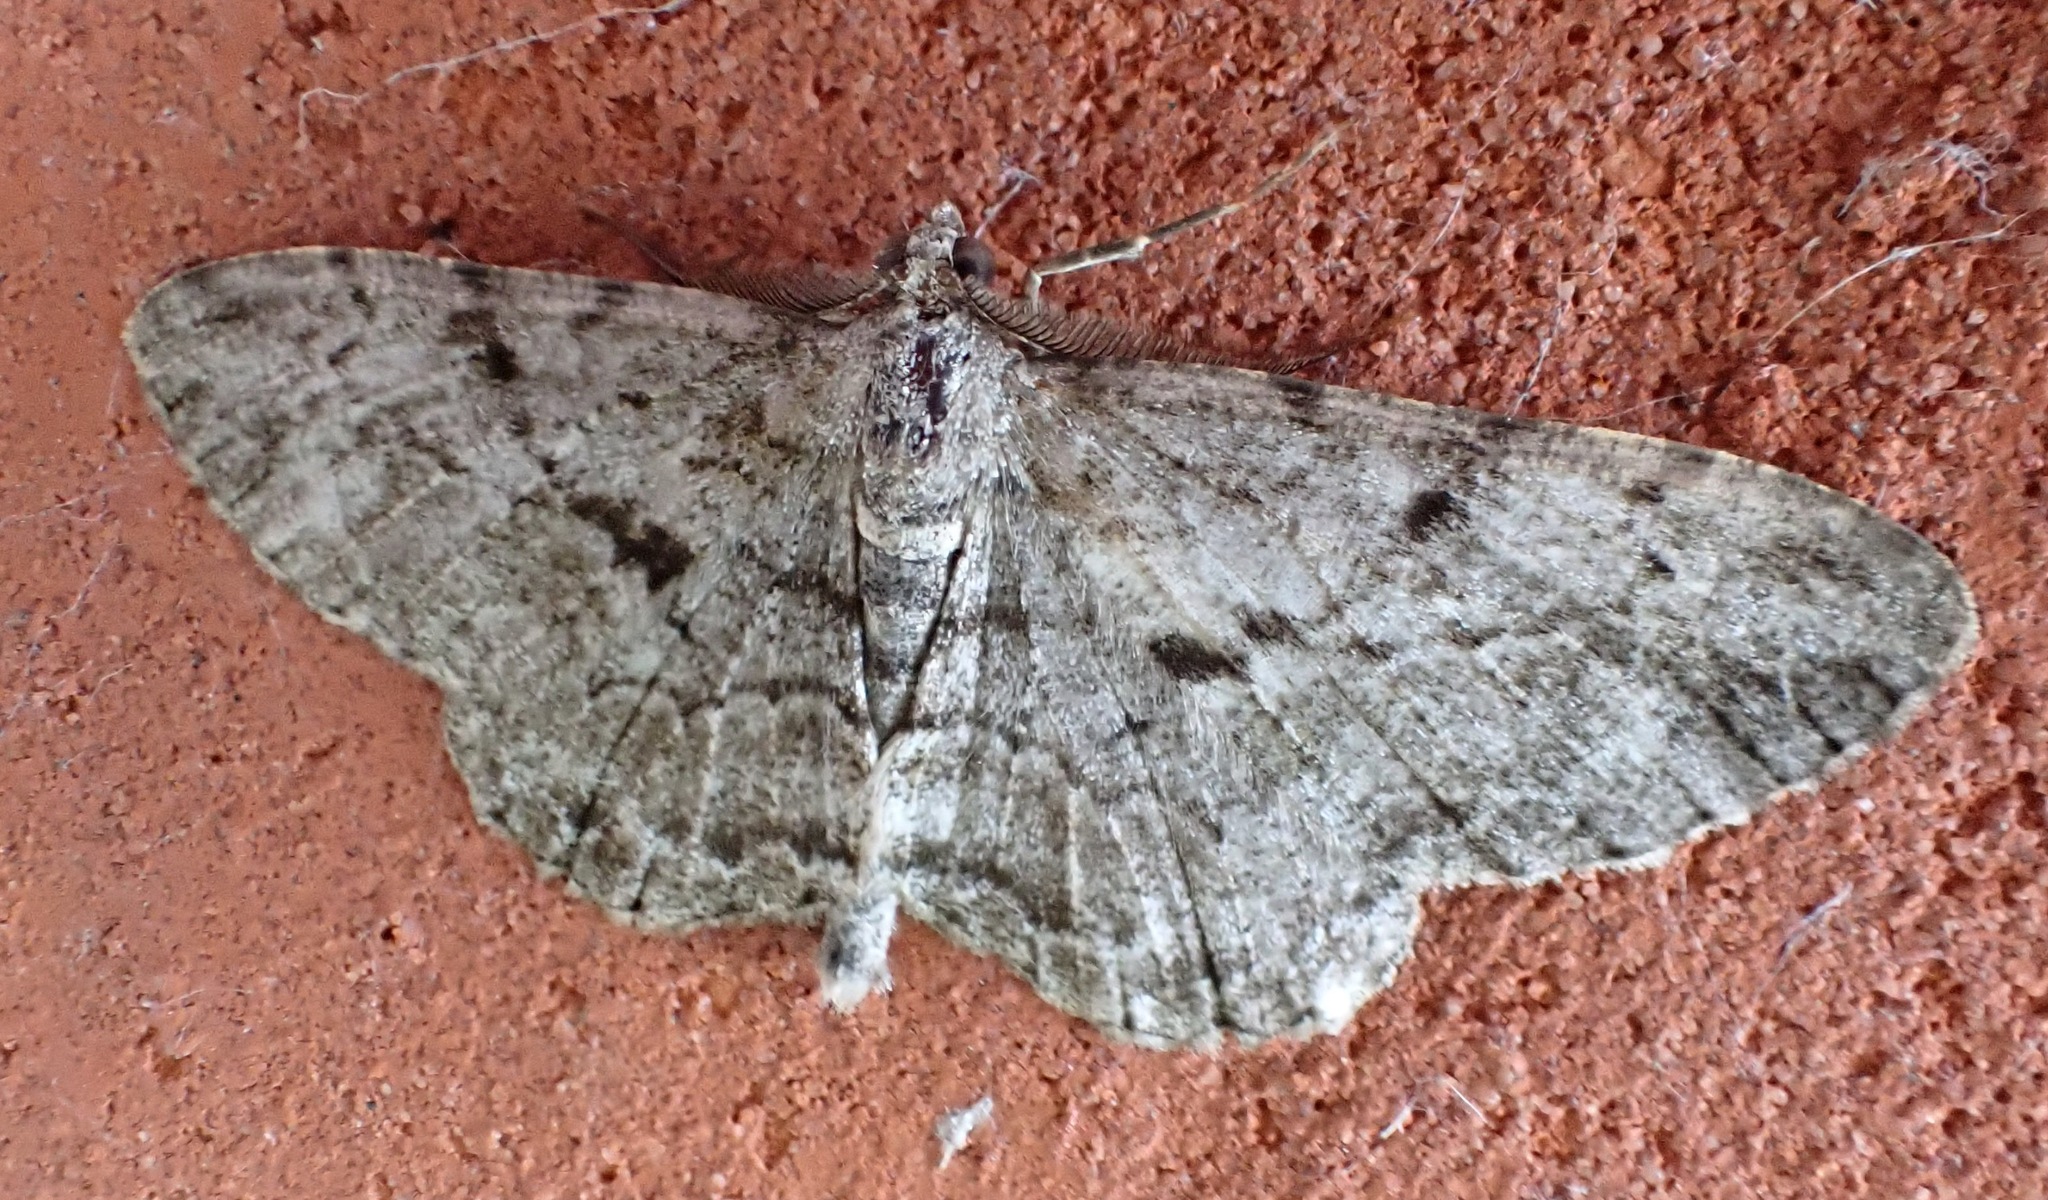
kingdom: Animalia
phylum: Arthropoda
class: Insecta
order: Lepidoptera
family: Geometridae
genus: Peribatodes
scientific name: Peribatodes rhomboidaria
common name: Willow beauty
